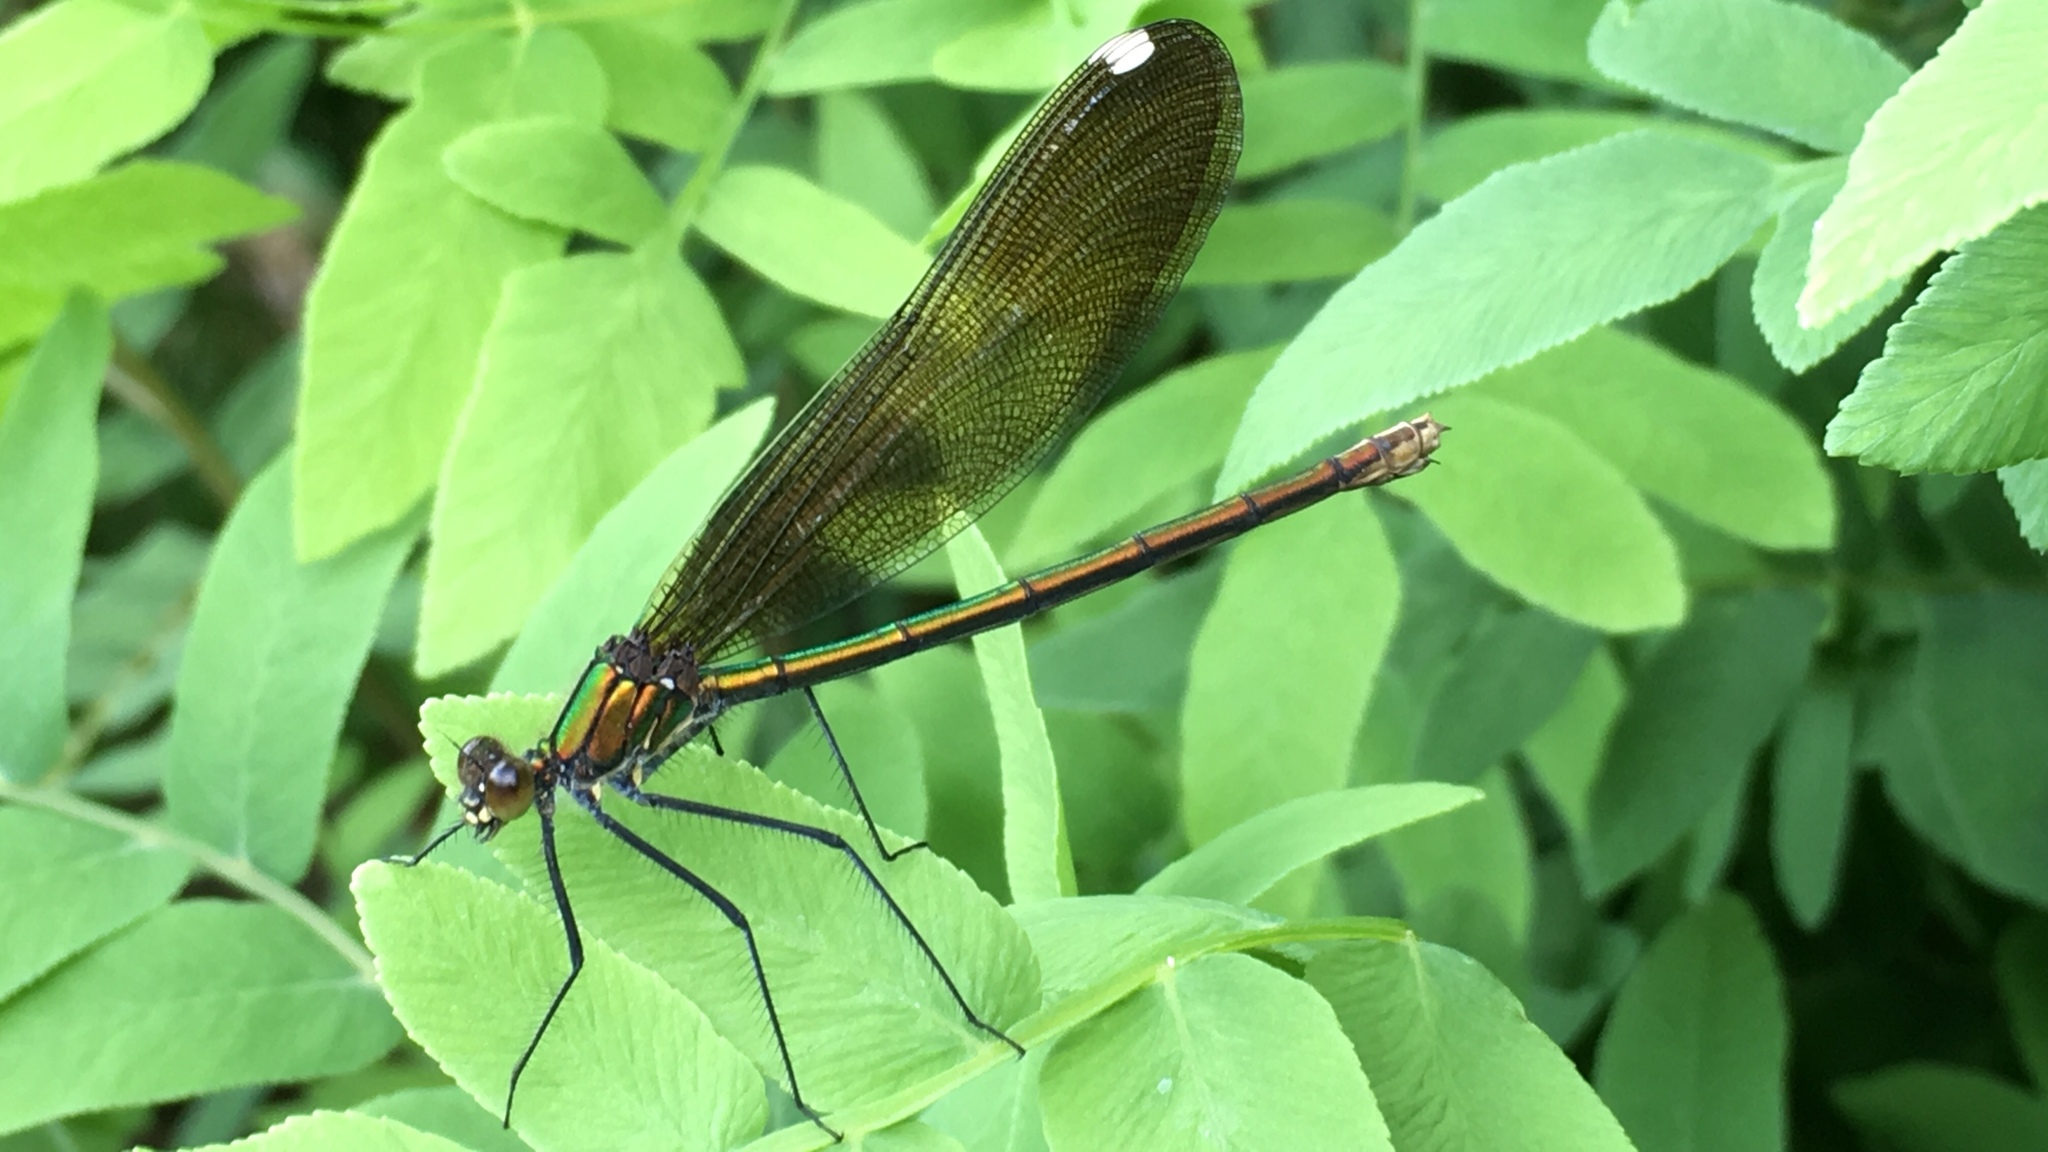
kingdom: Animalia
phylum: Arthropoda
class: Insecta
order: Odonata
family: Calopterygidae
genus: Calopteryx
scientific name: Calopteryx maculata
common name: Ebony jewelwing
